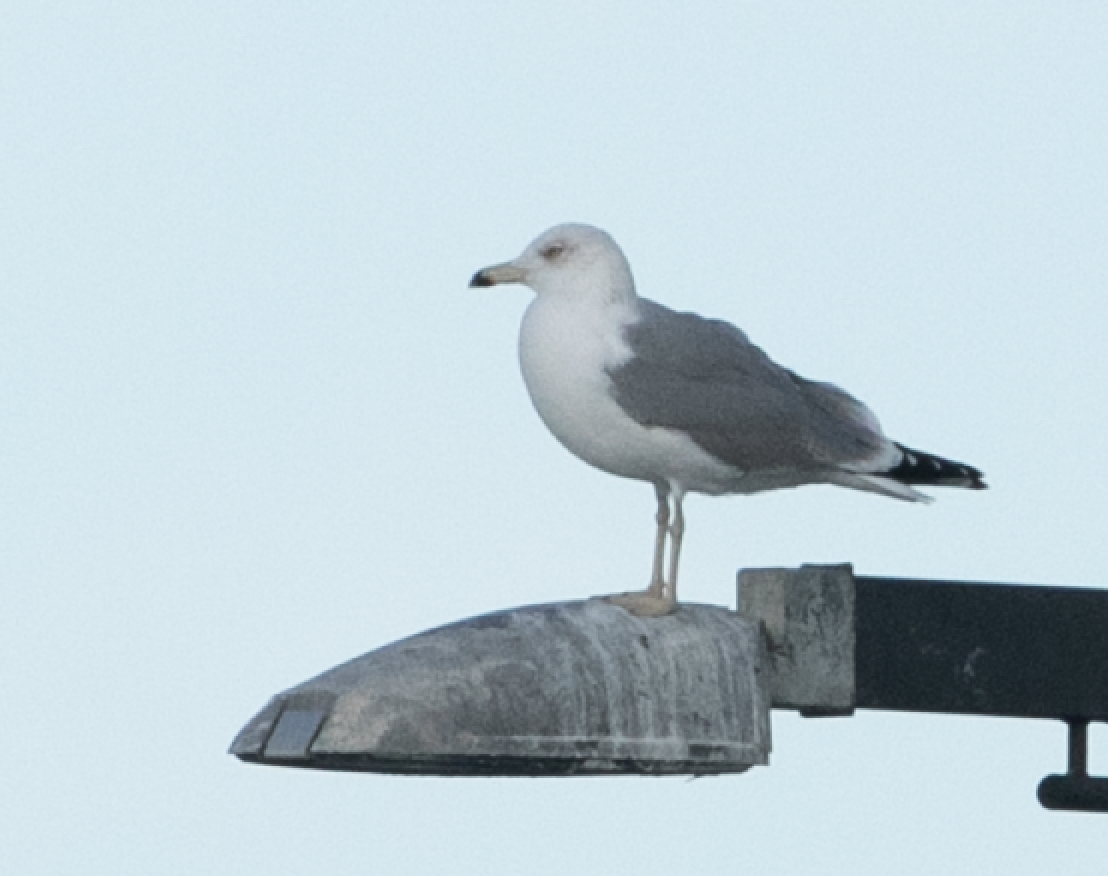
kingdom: Animalia
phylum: Chordata
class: Aves
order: Charadriiformes
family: Laridae
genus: Larus
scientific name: Larus michahellis
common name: Yellow-legged gull
